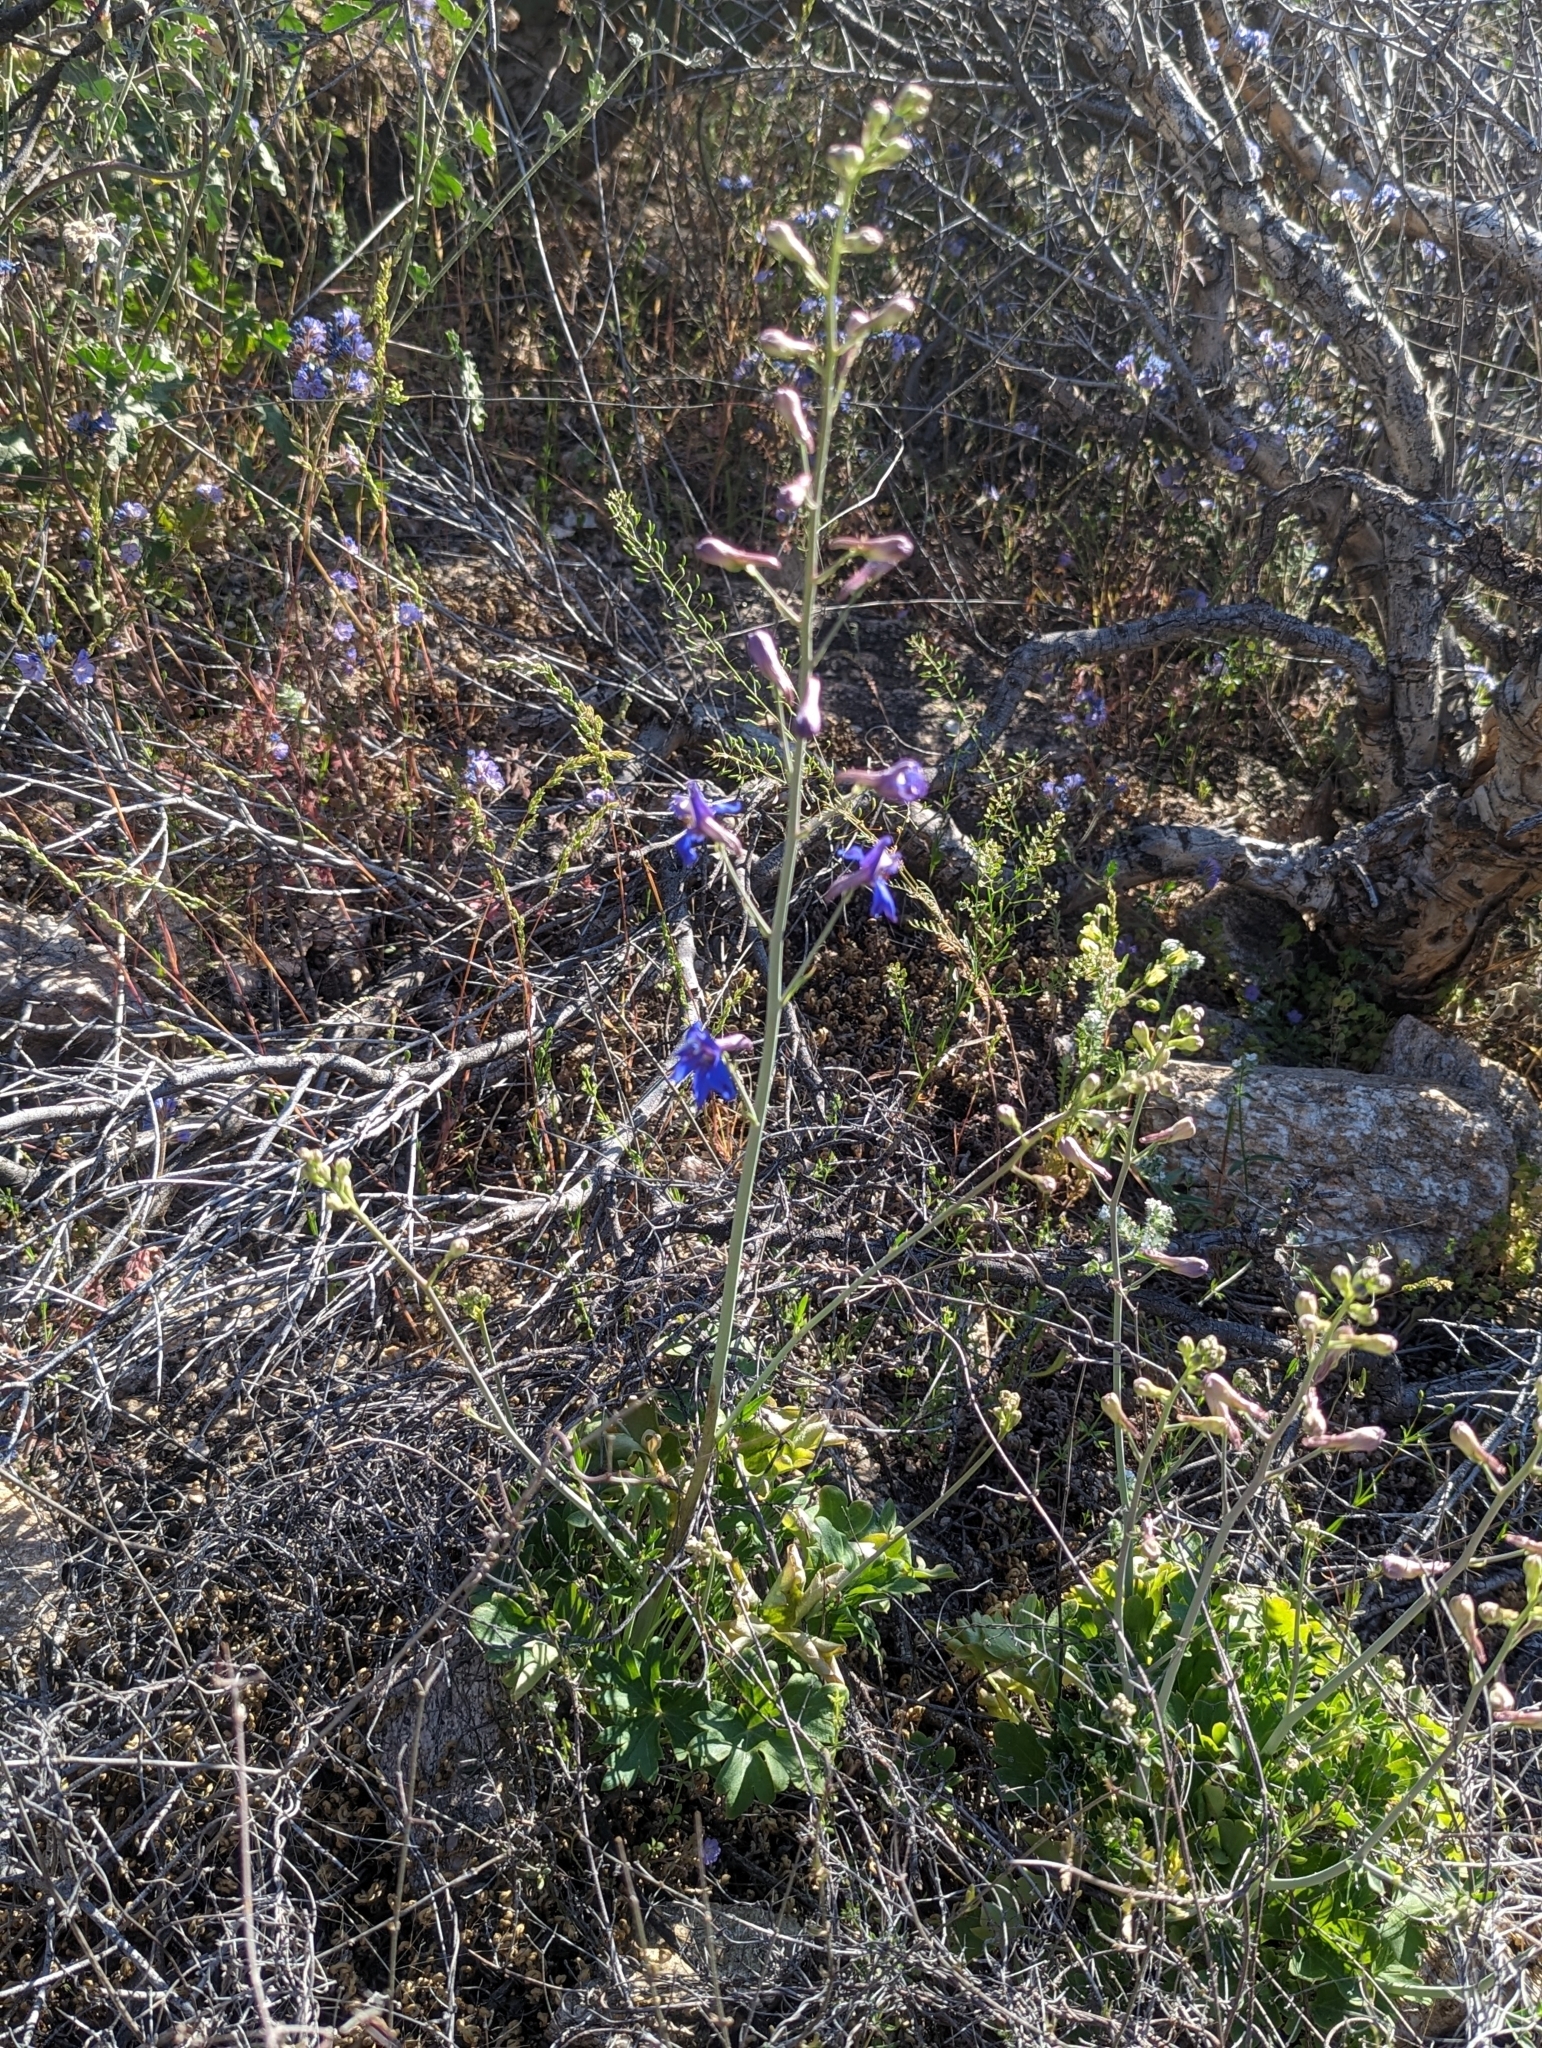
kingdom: Plantae
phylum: Tracheophyta
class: Magnoliopsida
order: Ranunculales
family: Ranunculaceae
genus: Delphinium
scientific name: Delphinium scaposum
